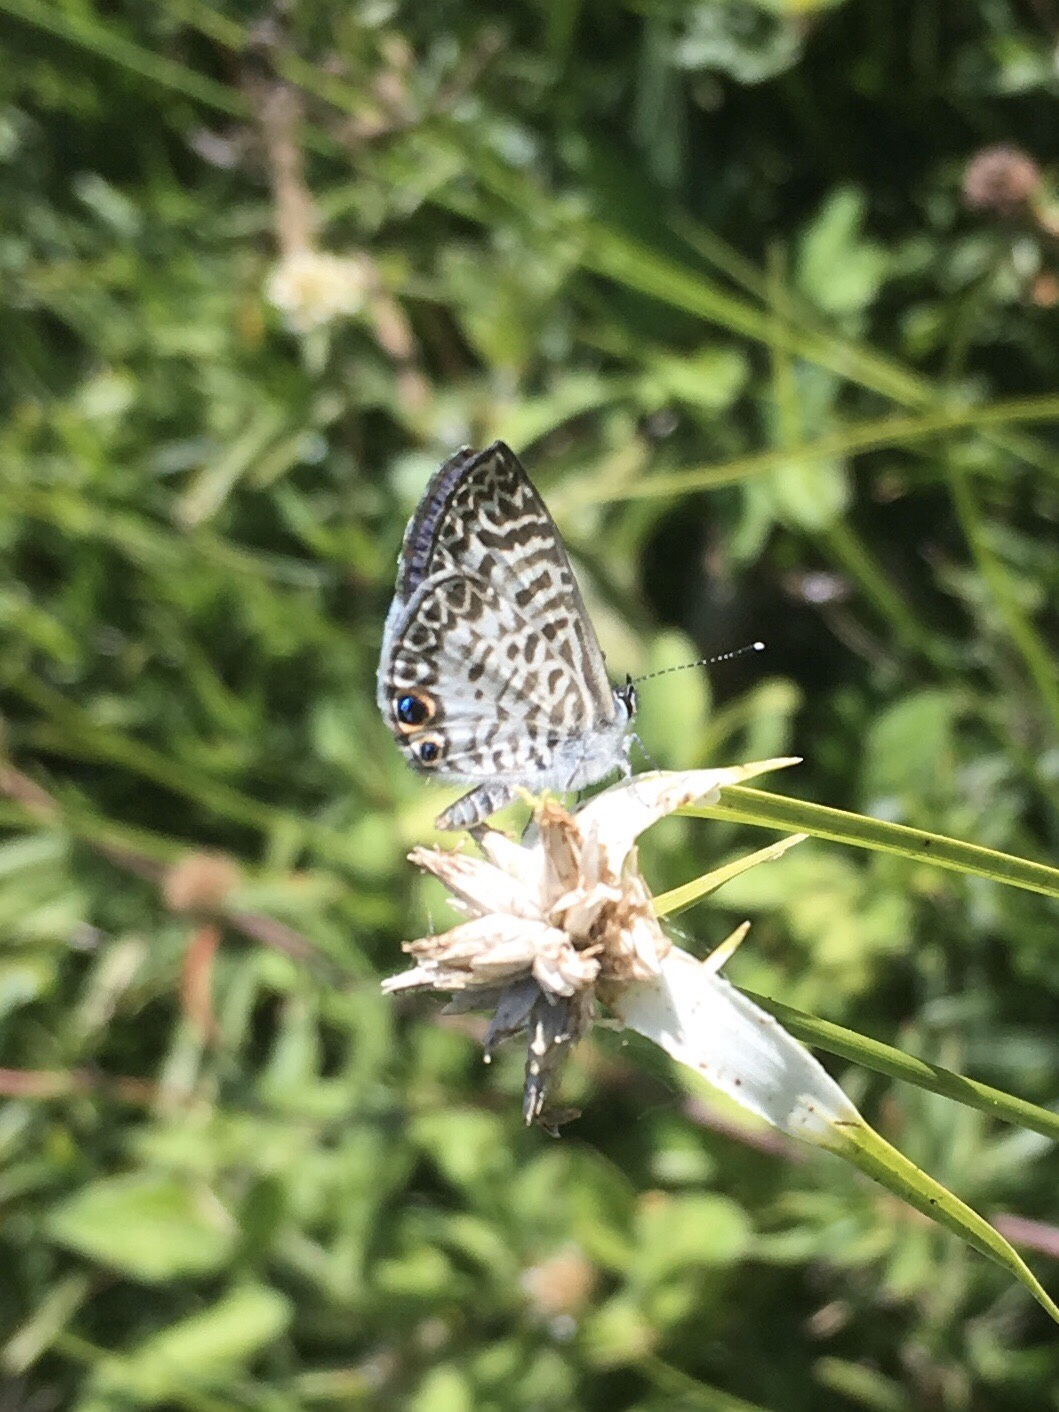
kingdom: Animalia
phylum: Arthropoda
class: Insecta
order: Lepidoptera
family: Lycaenidae
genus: Leptotes
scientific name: Leptotes cassius
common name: Cassius blue
